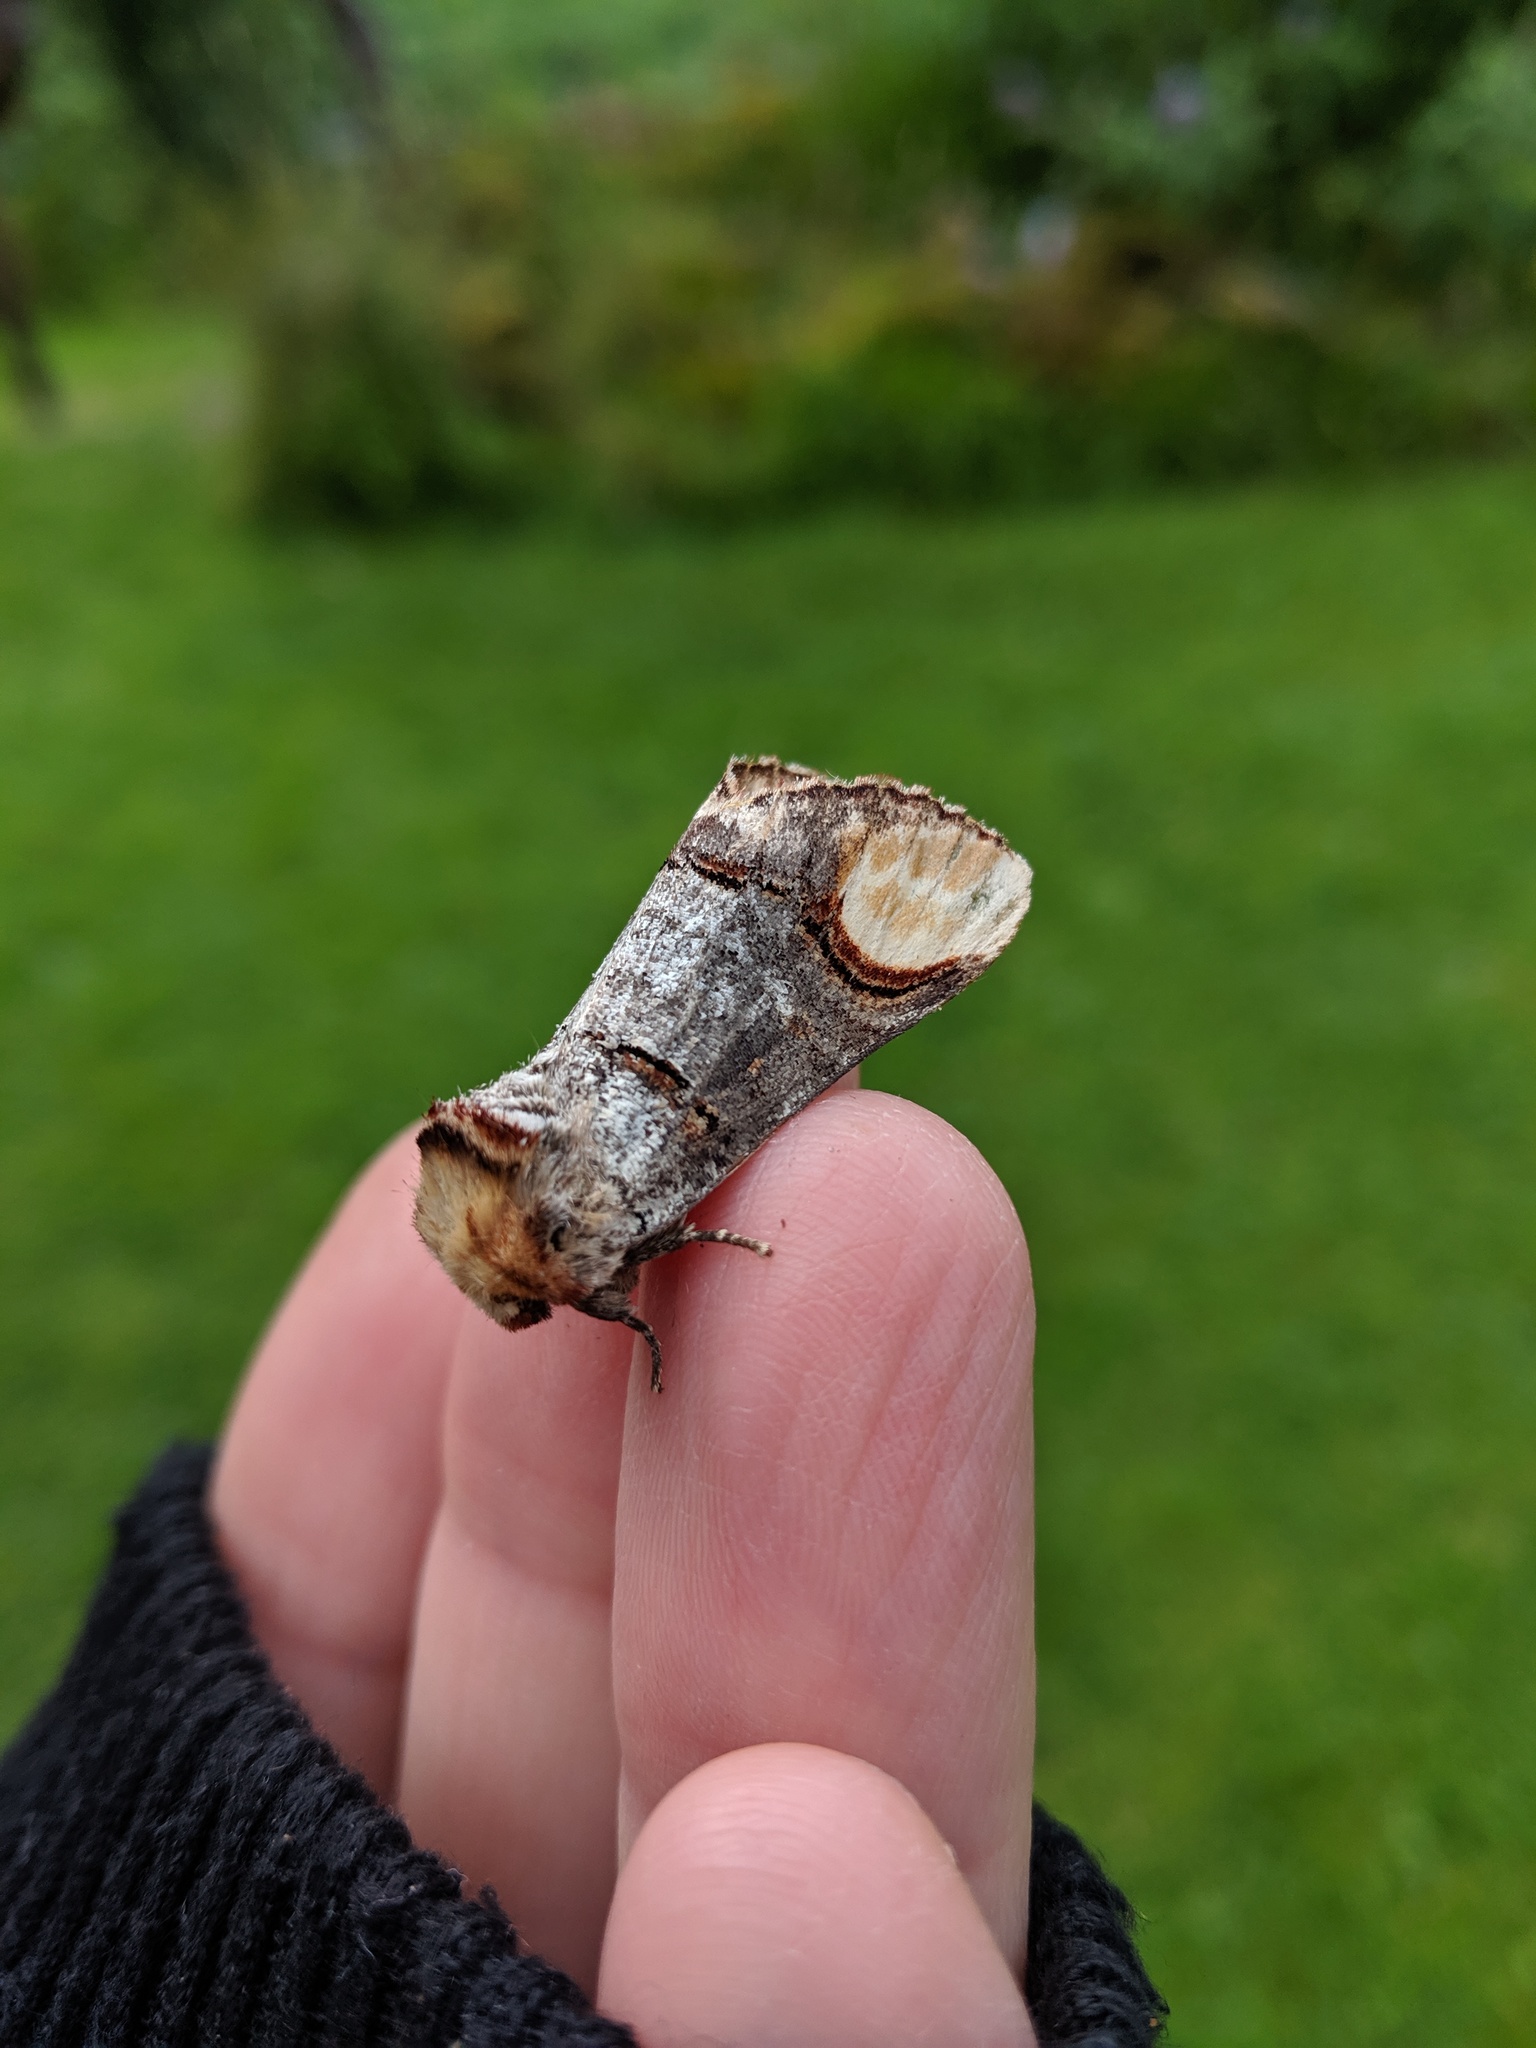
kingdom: Animalia
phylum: Arthropoda
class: Insecta
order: Lepidoptera
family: Notodontidae
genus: Phalera
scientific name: Phalera bucephala
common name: Buff-tip
